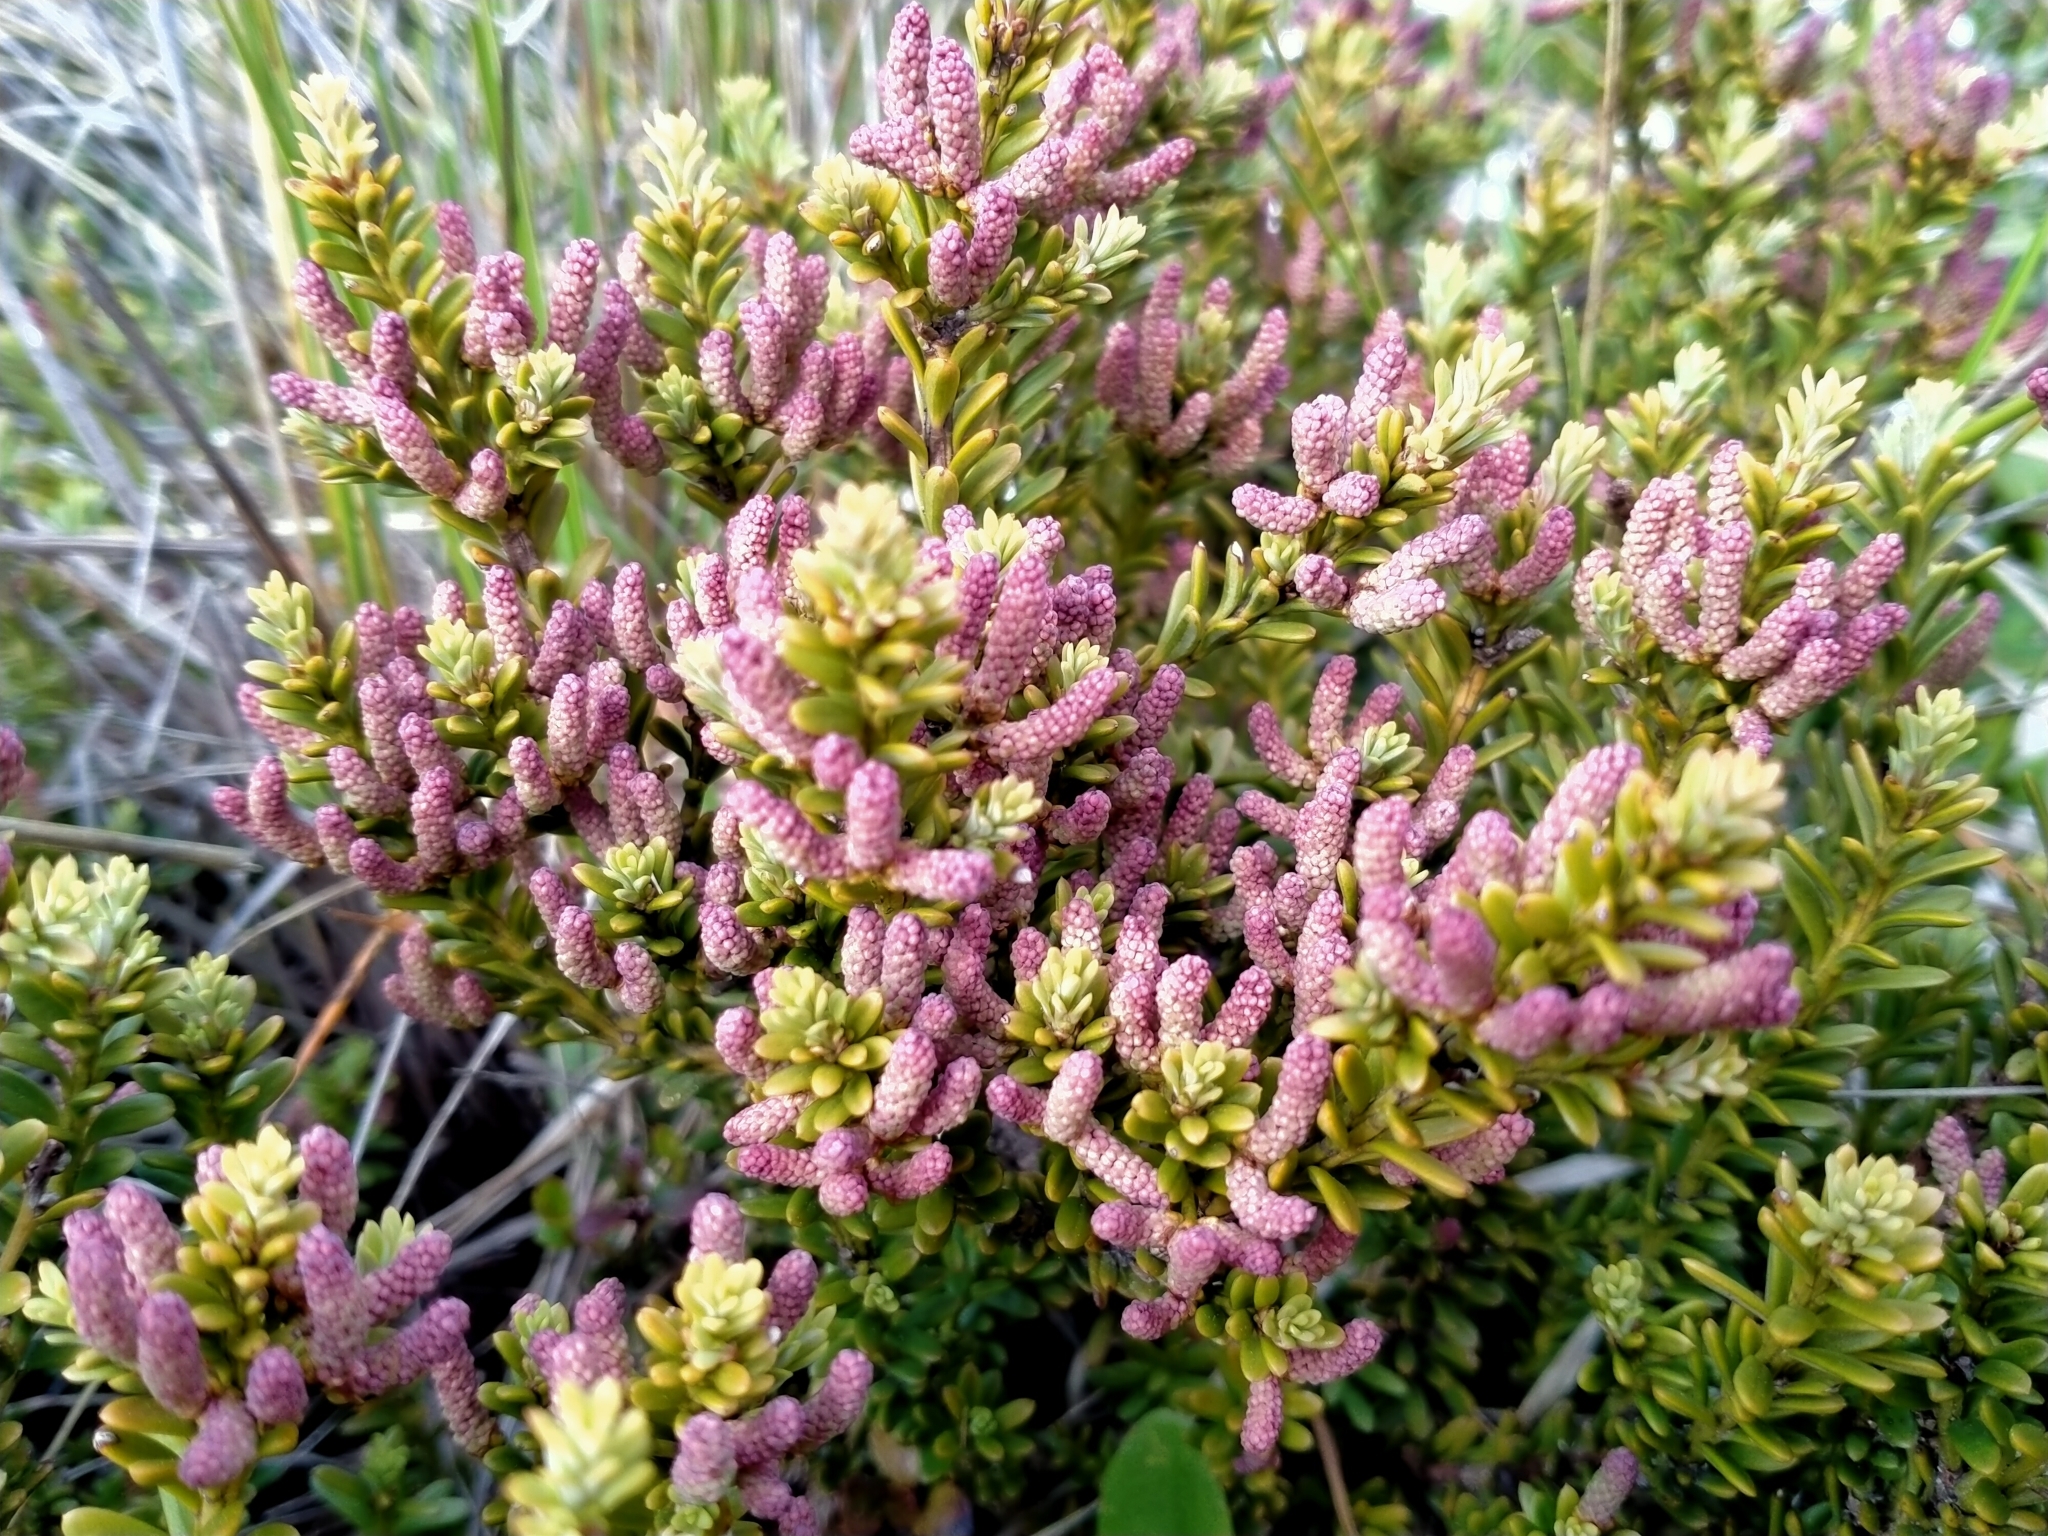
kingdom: Plantae
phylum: Tracheophyta
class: Pinopsida
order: Pinales
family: Podocarpaceae
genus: Podocarpus
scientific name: Podocarpus nivalis
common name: Alpine totara
